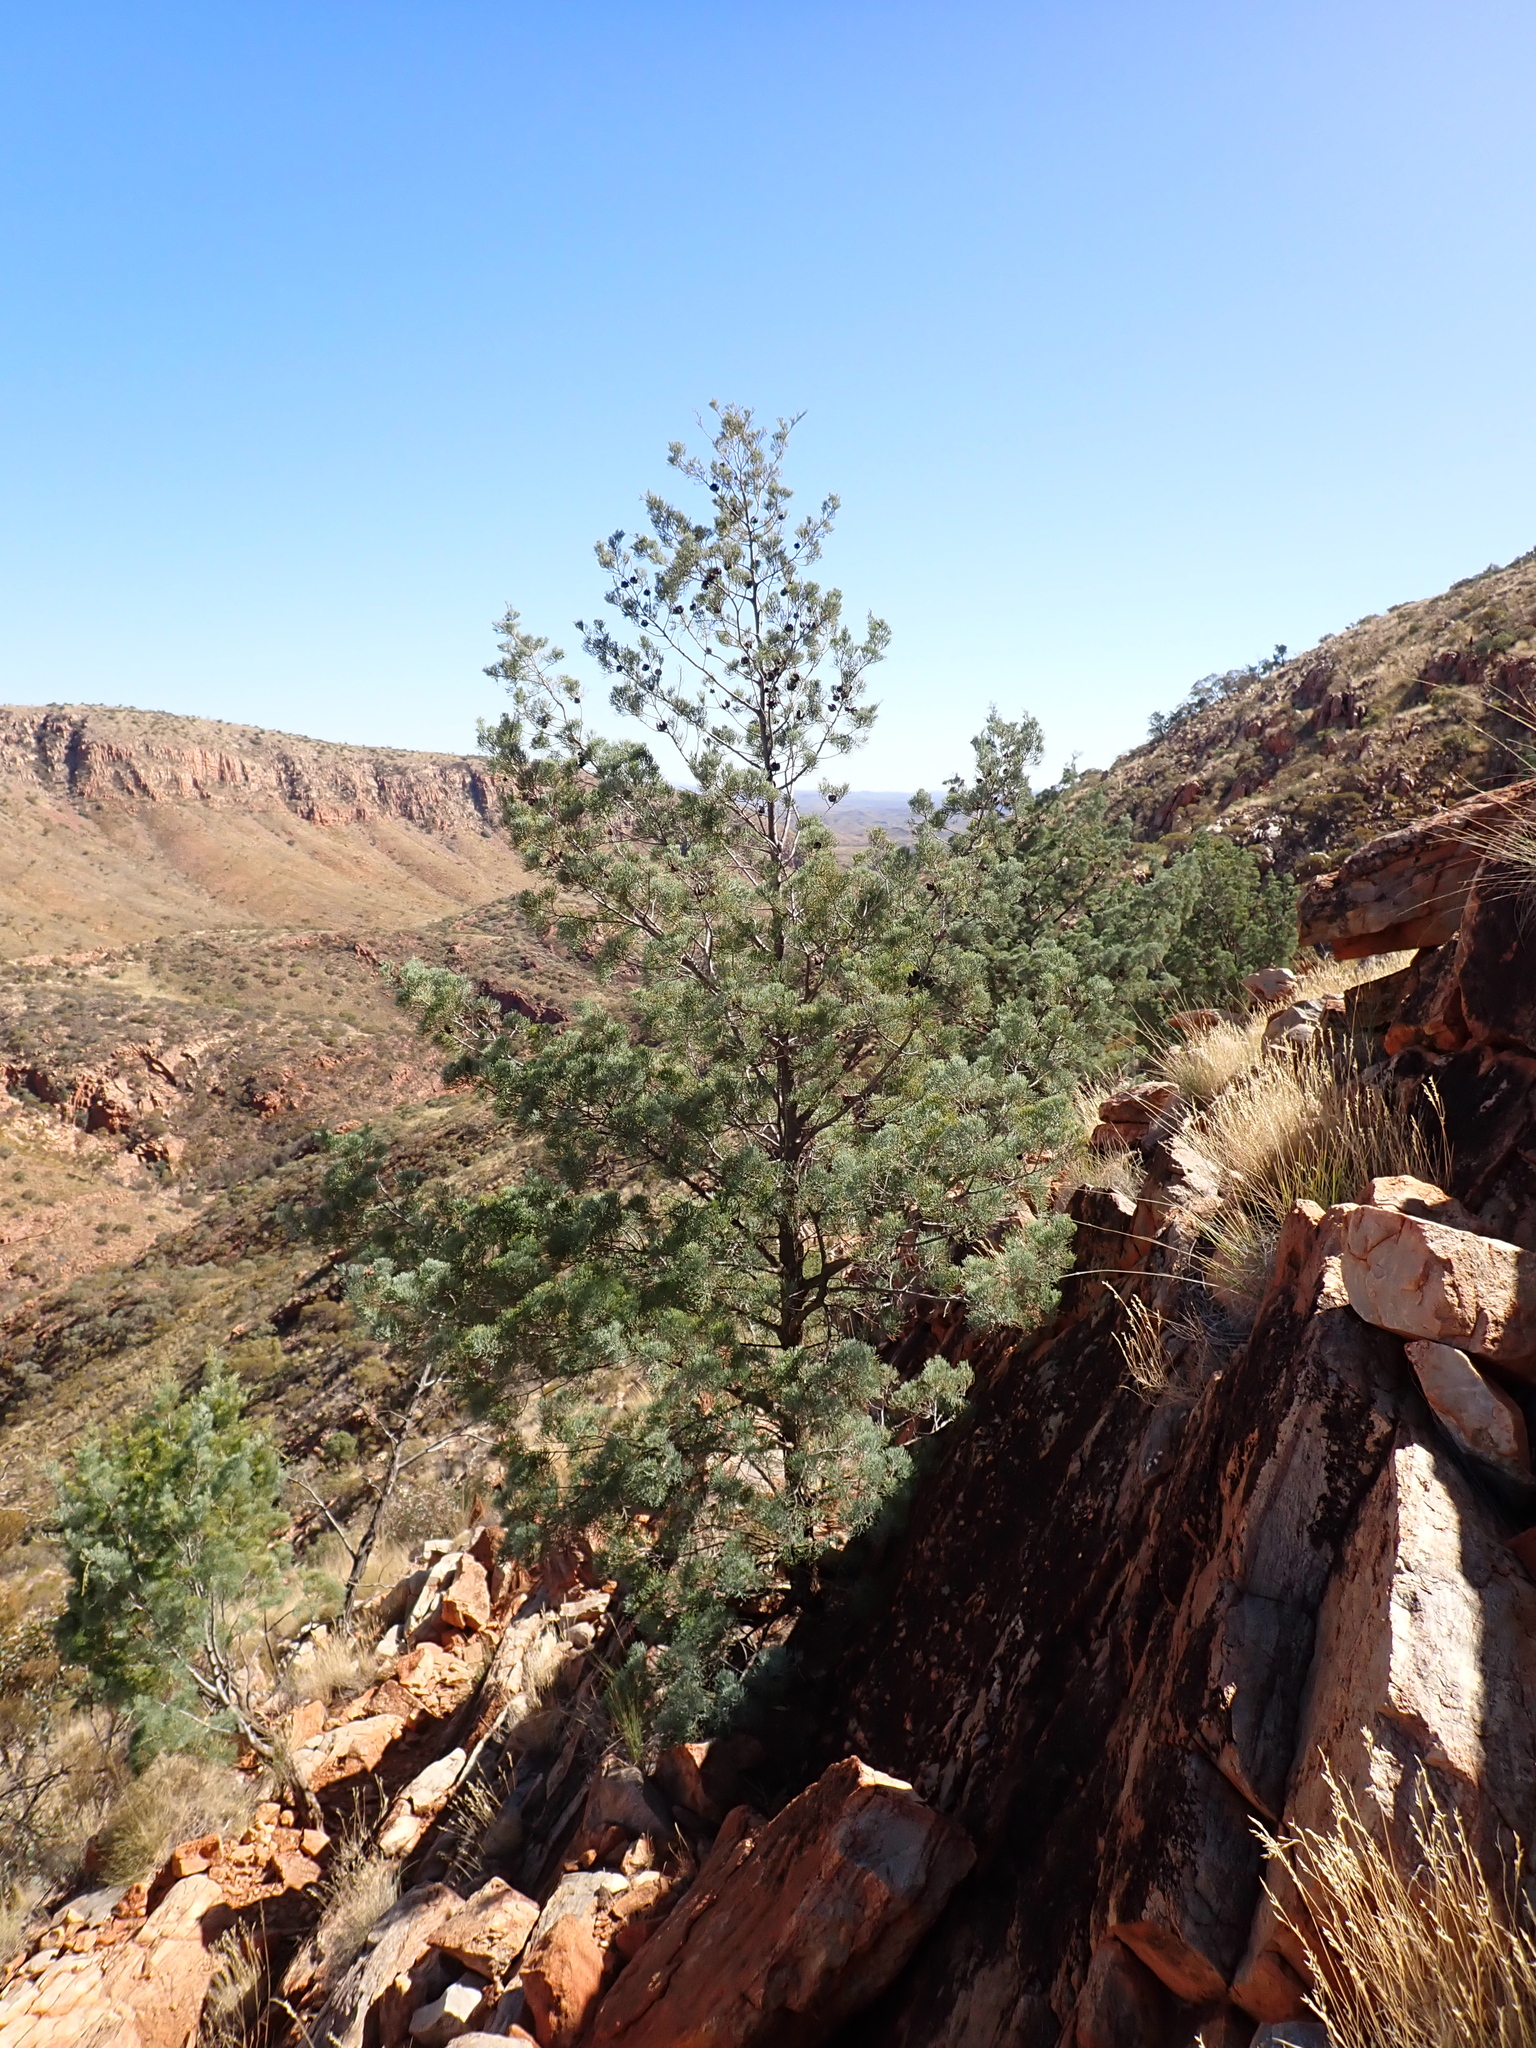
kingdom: Plantae
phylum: Tracheophyta
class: Pinopsida
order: Pinales
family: Cupressaceae
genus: Callitris
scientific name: Callitris columellaris
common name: White cypress-pine
